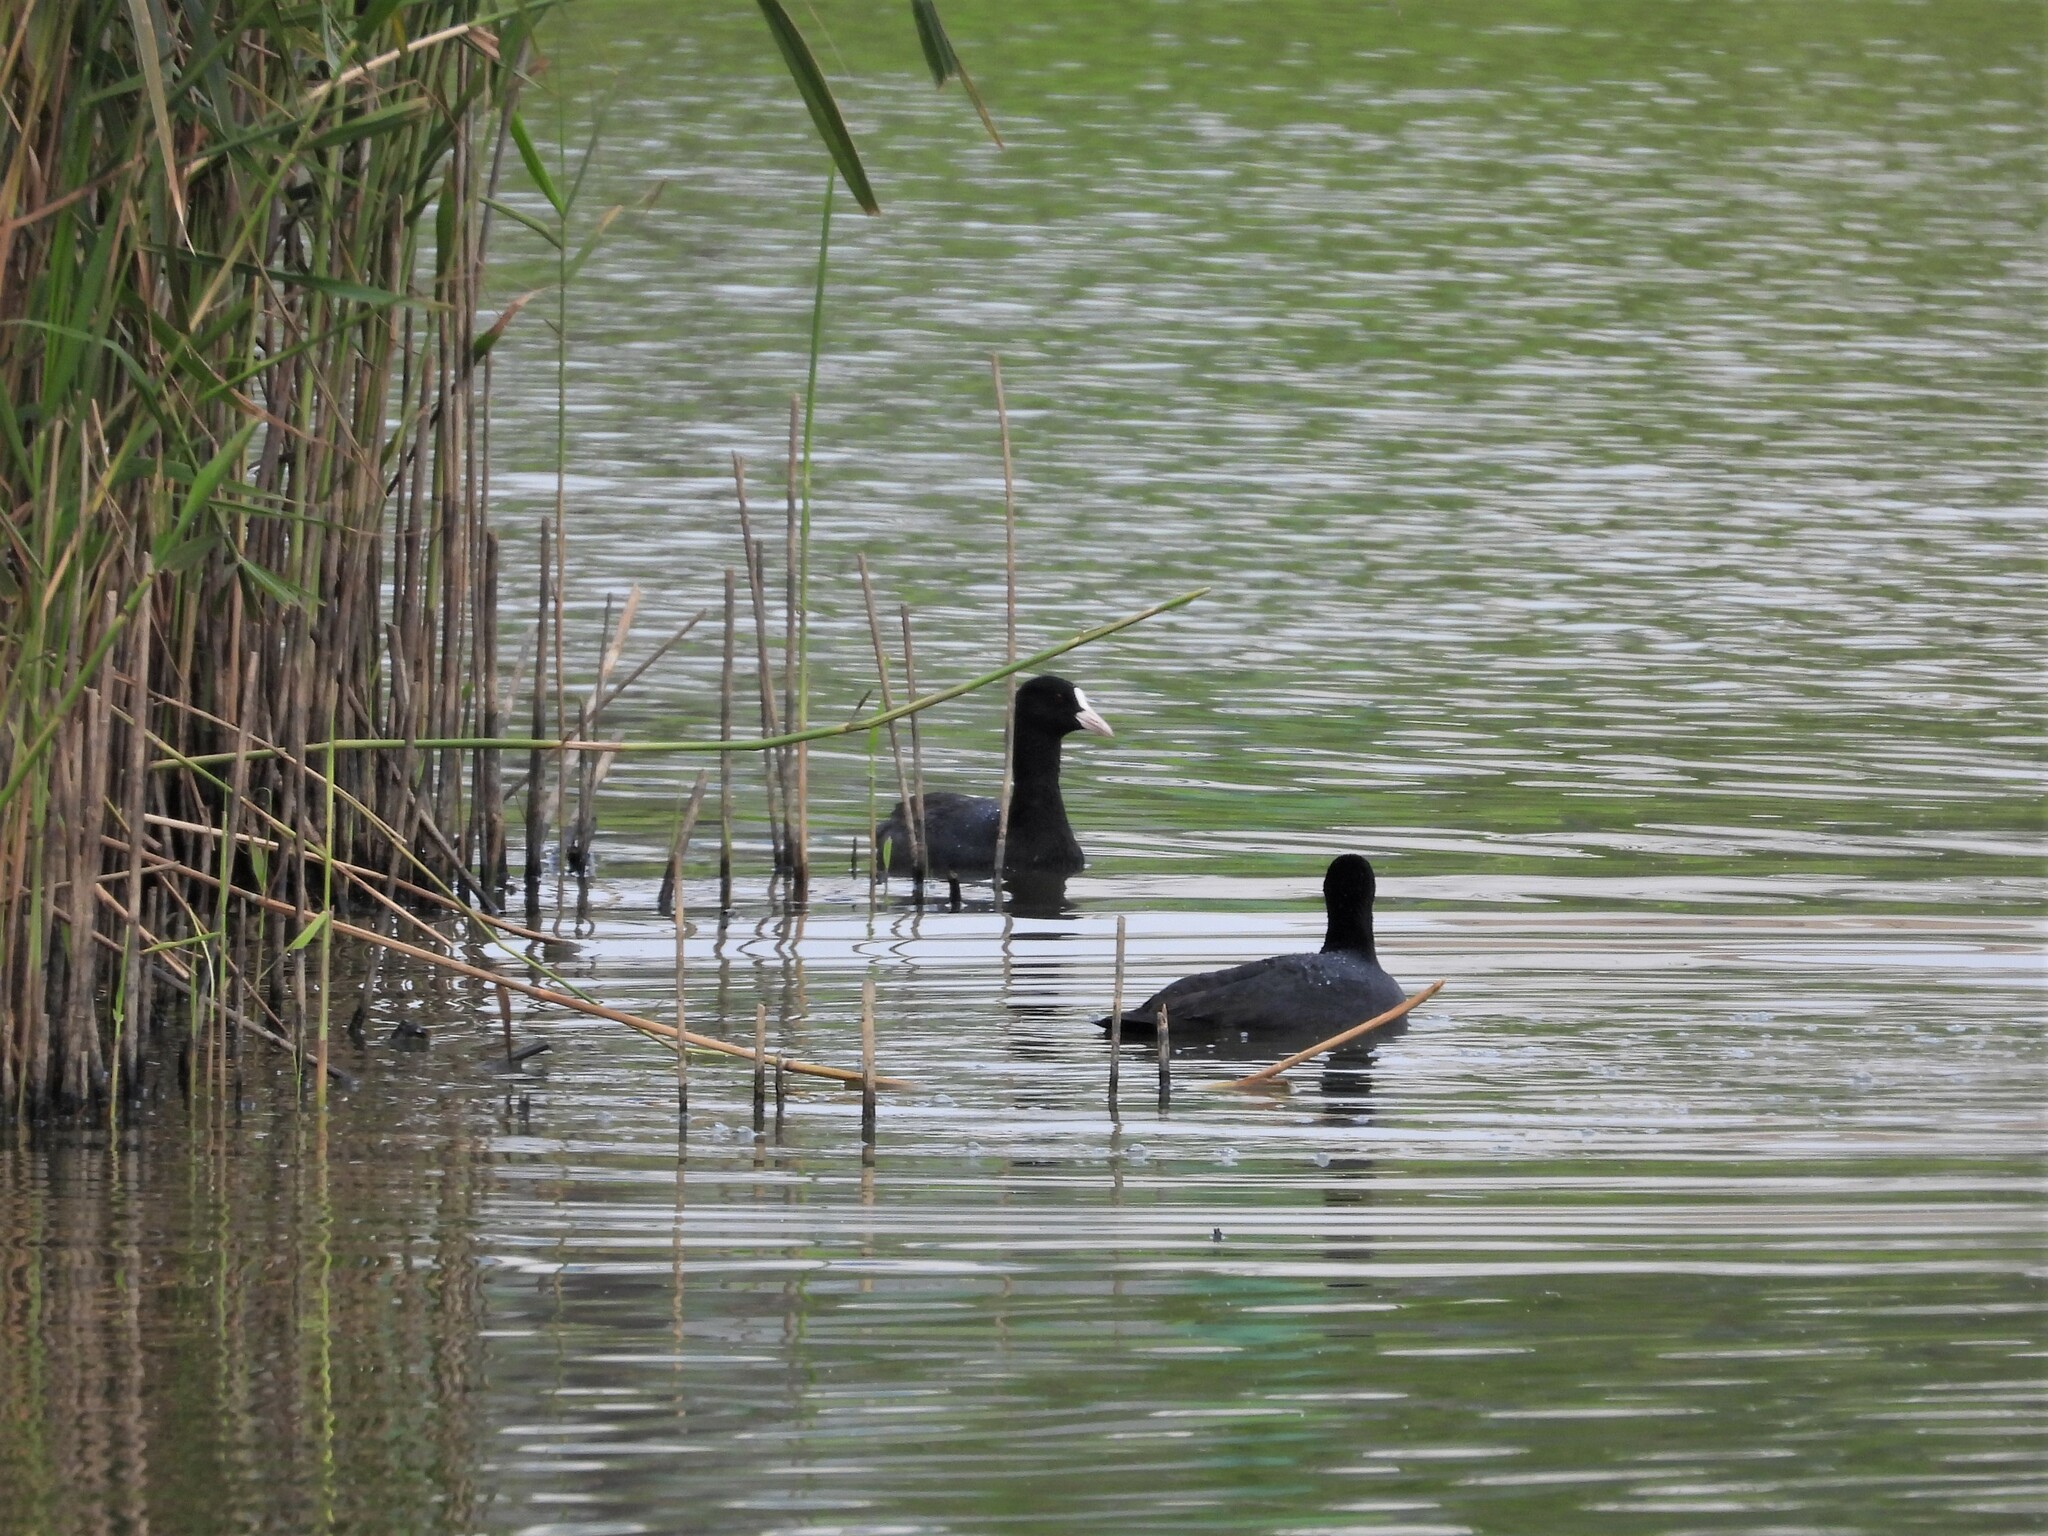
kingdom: Animalia
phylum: Chordata
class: Aves
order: Gruiformes
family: Rallidae
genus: Fulica
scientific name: Fulica atra
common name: Eurasian coot
